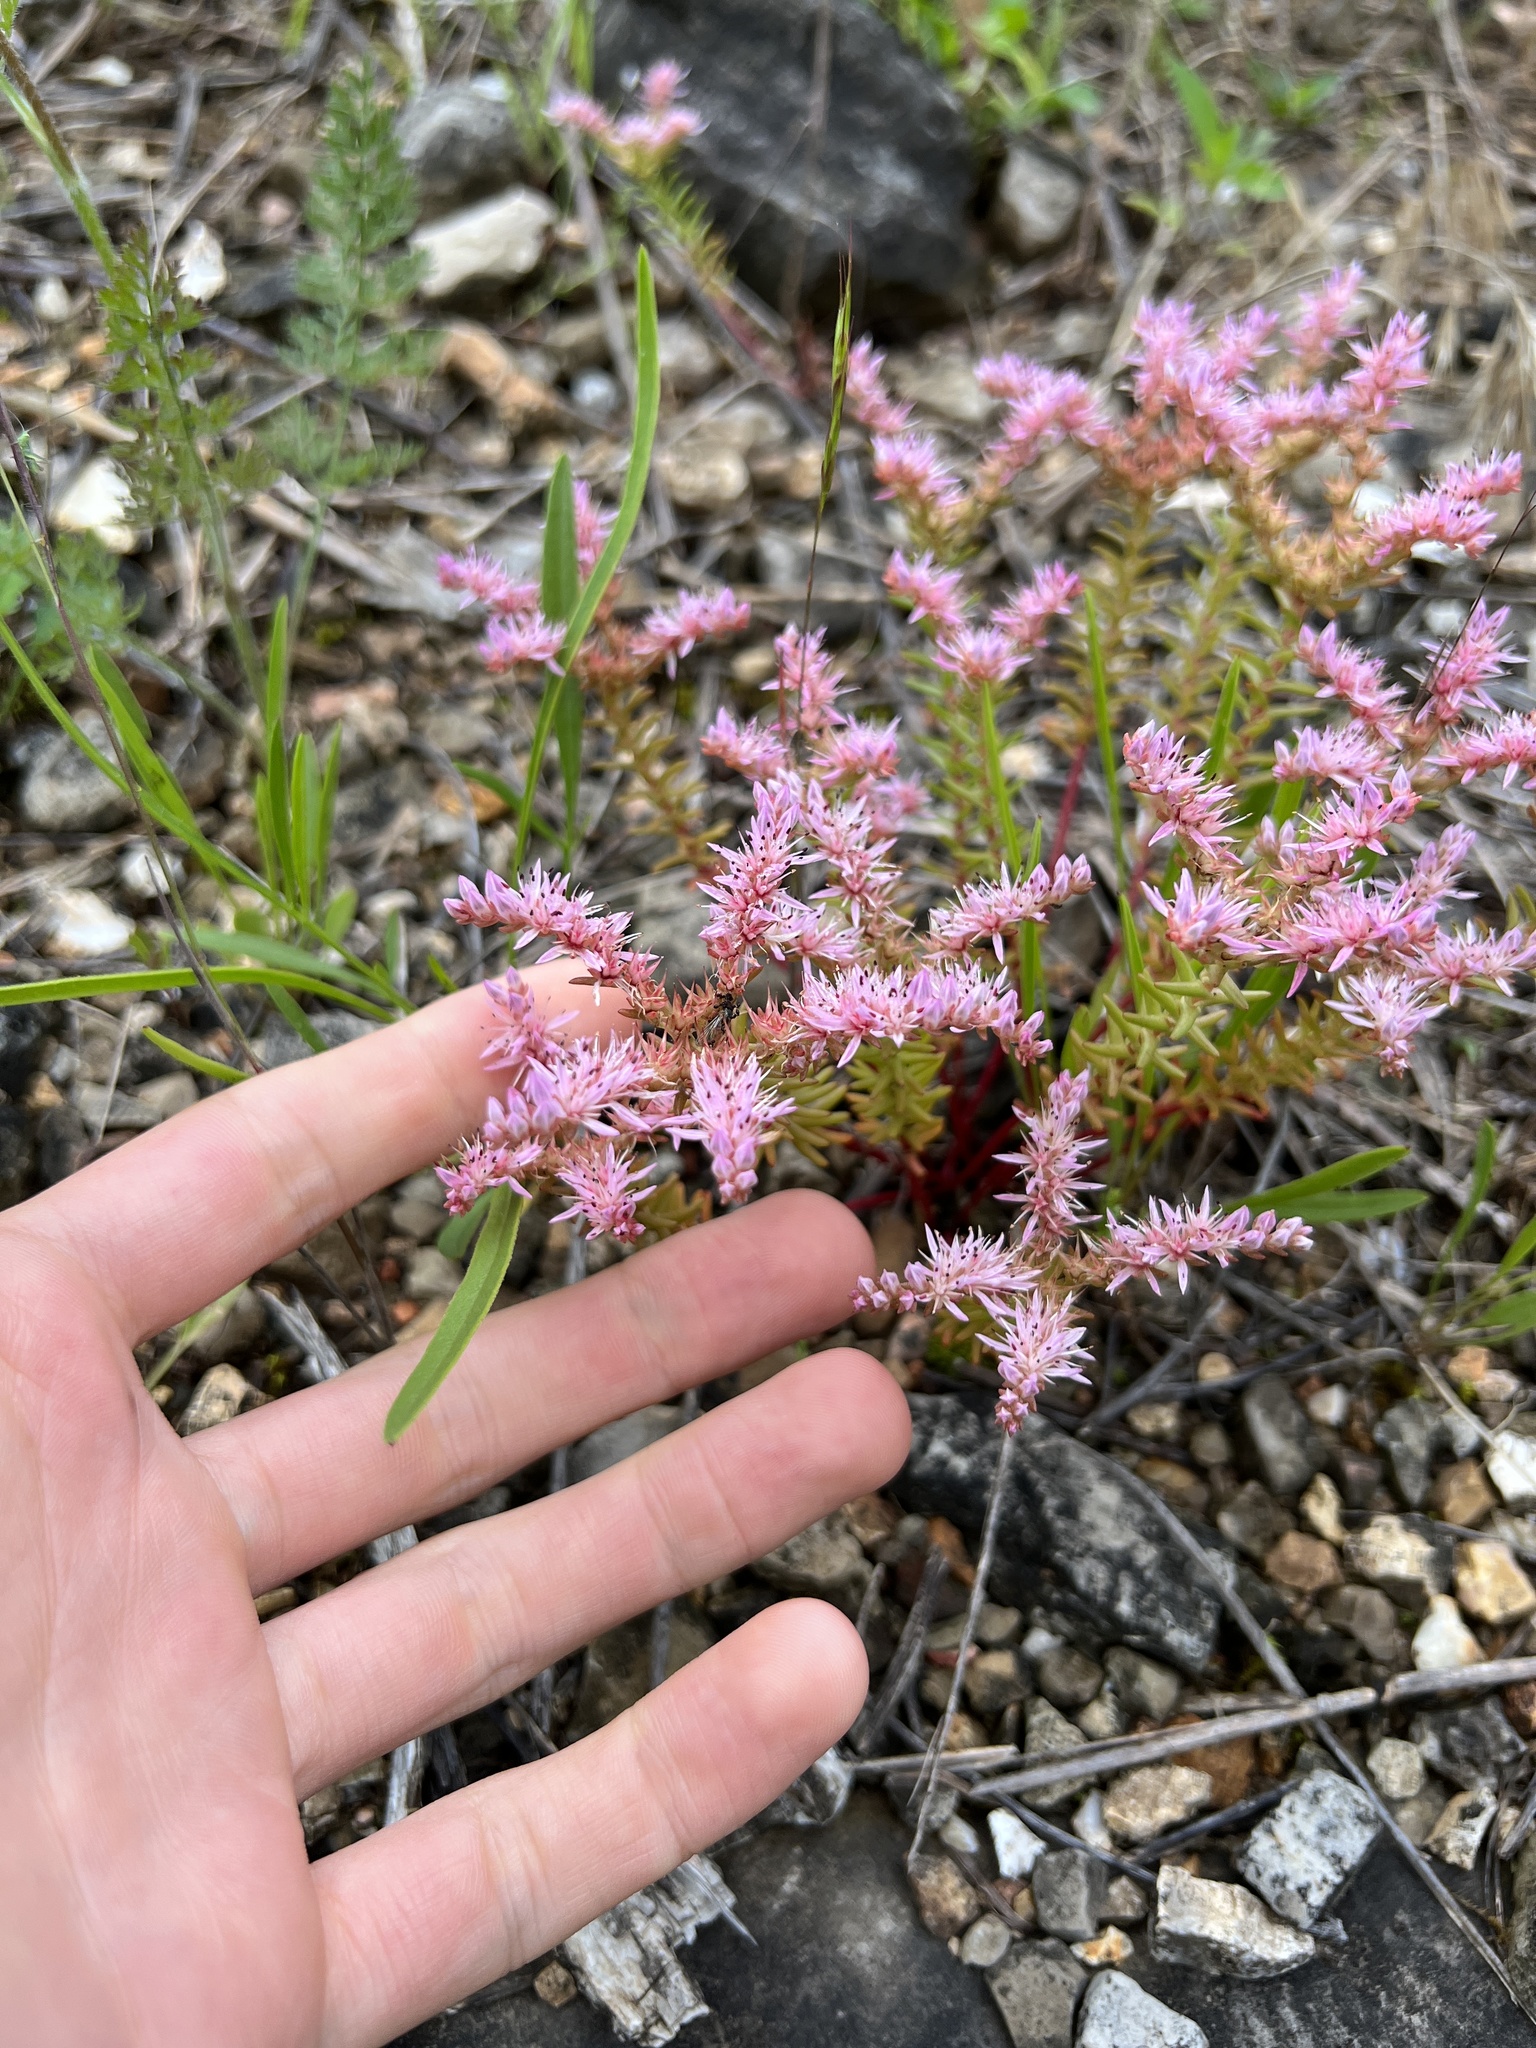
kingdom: Plantae
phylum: Tracheophyta
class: Magnoliopsida
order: Saxifragales
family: Crassulaceae
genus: Sedum
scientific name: Sedum pulchellum
